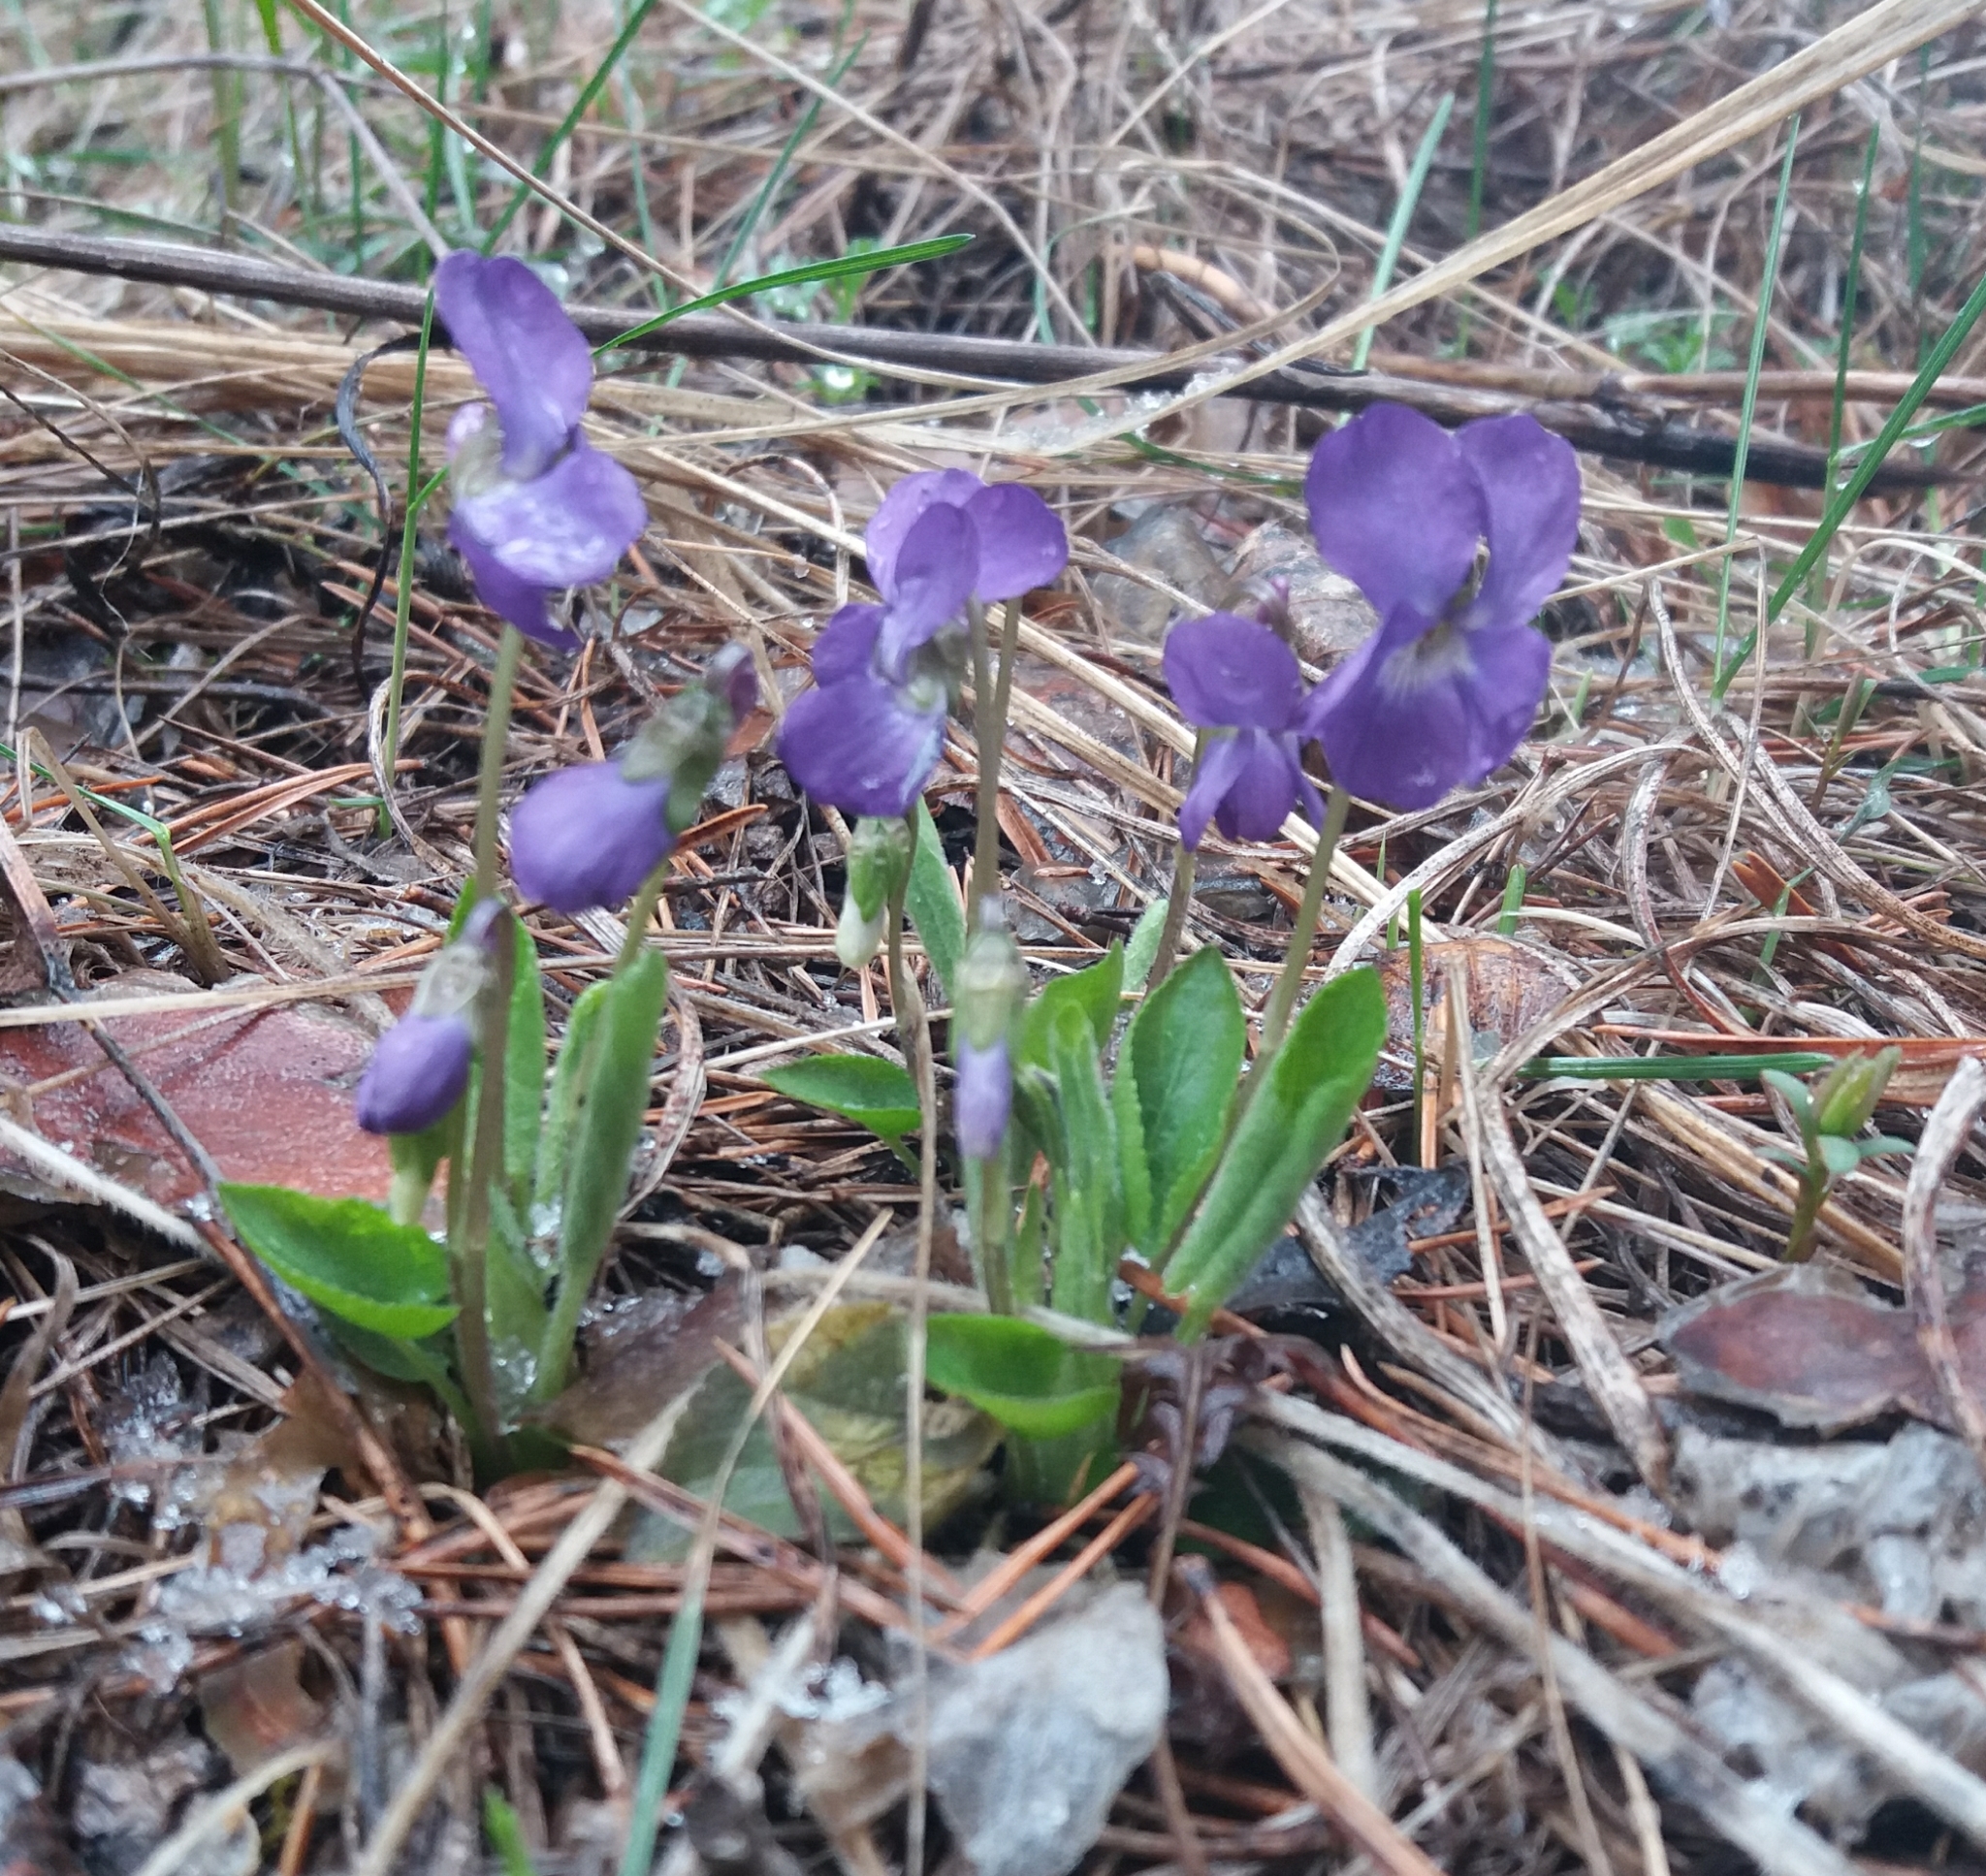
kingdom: Plantae
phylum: Tracheophyta
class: Magnoliopsida
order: Malpighiales
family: Violaceae
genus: Viola
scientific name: Viola hirta
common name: Hairy violet
